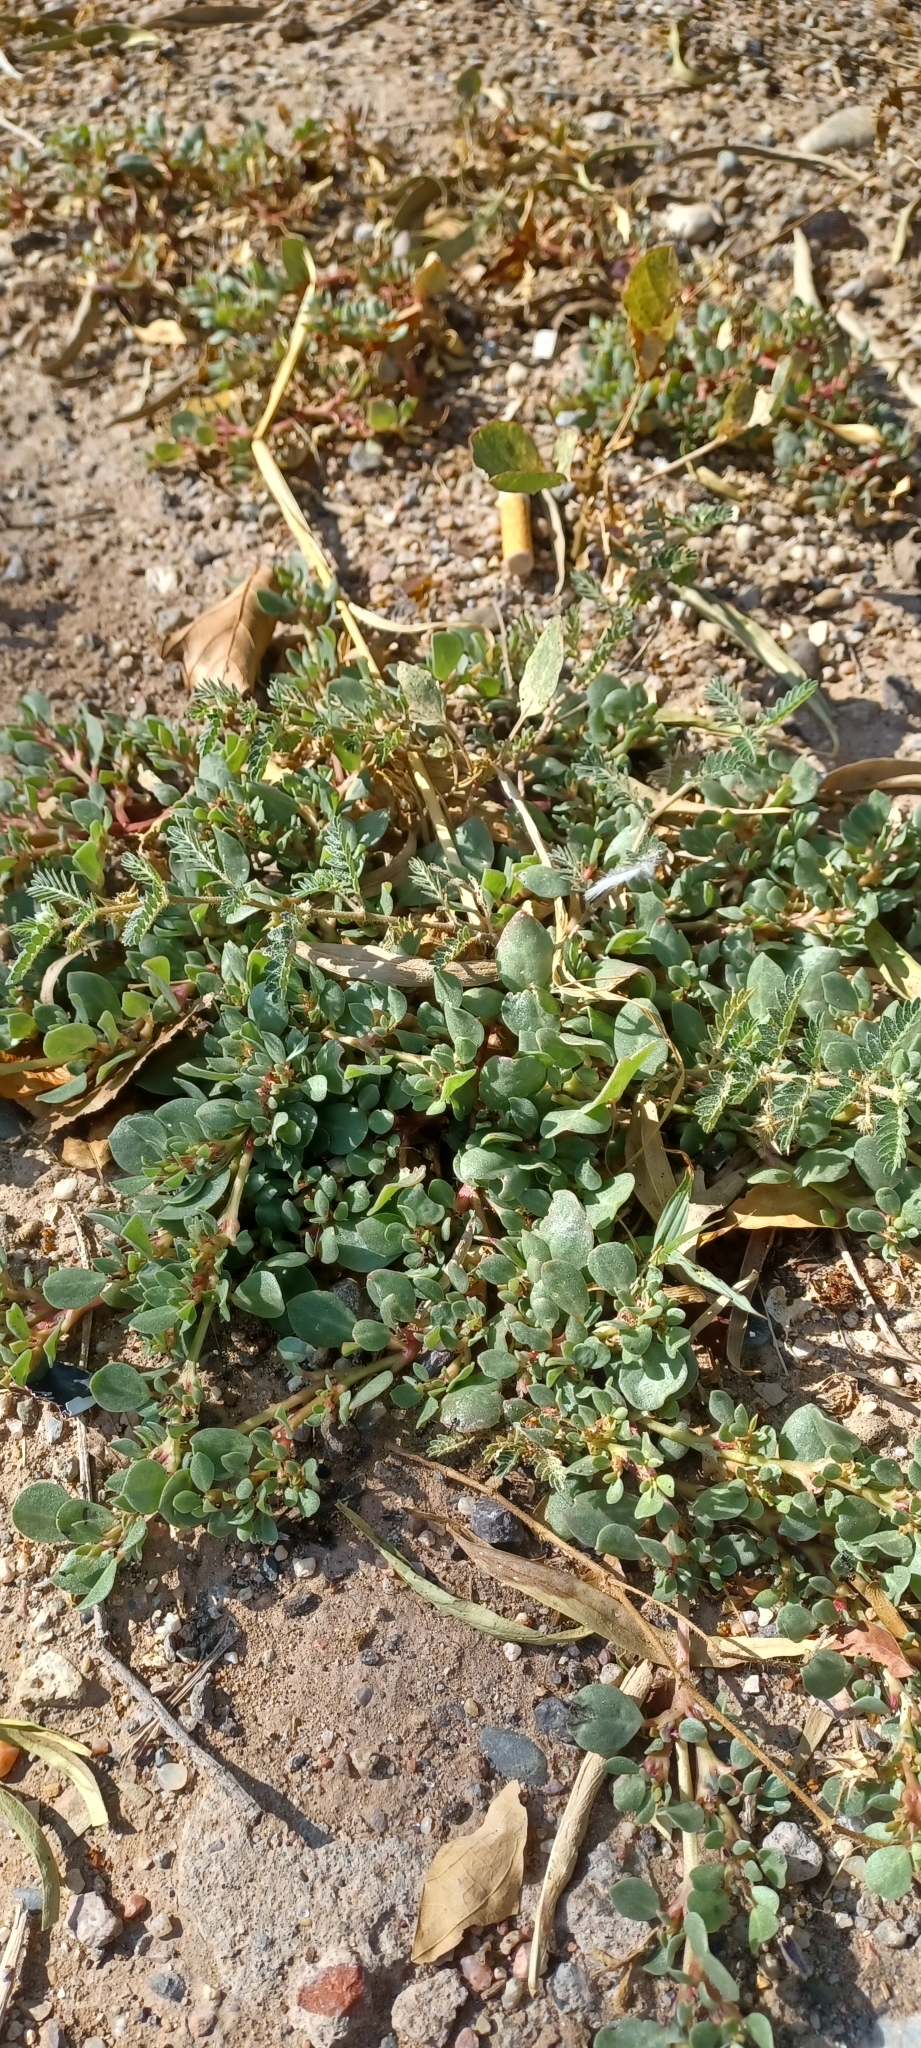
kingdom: Plantae
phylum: Tracheophyta
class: Magnoliopsida
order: Caryophyllales
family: Aizoaceae
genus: Trianthema
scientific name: Trianthema portulacastrum
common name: Desert horsepurslane
